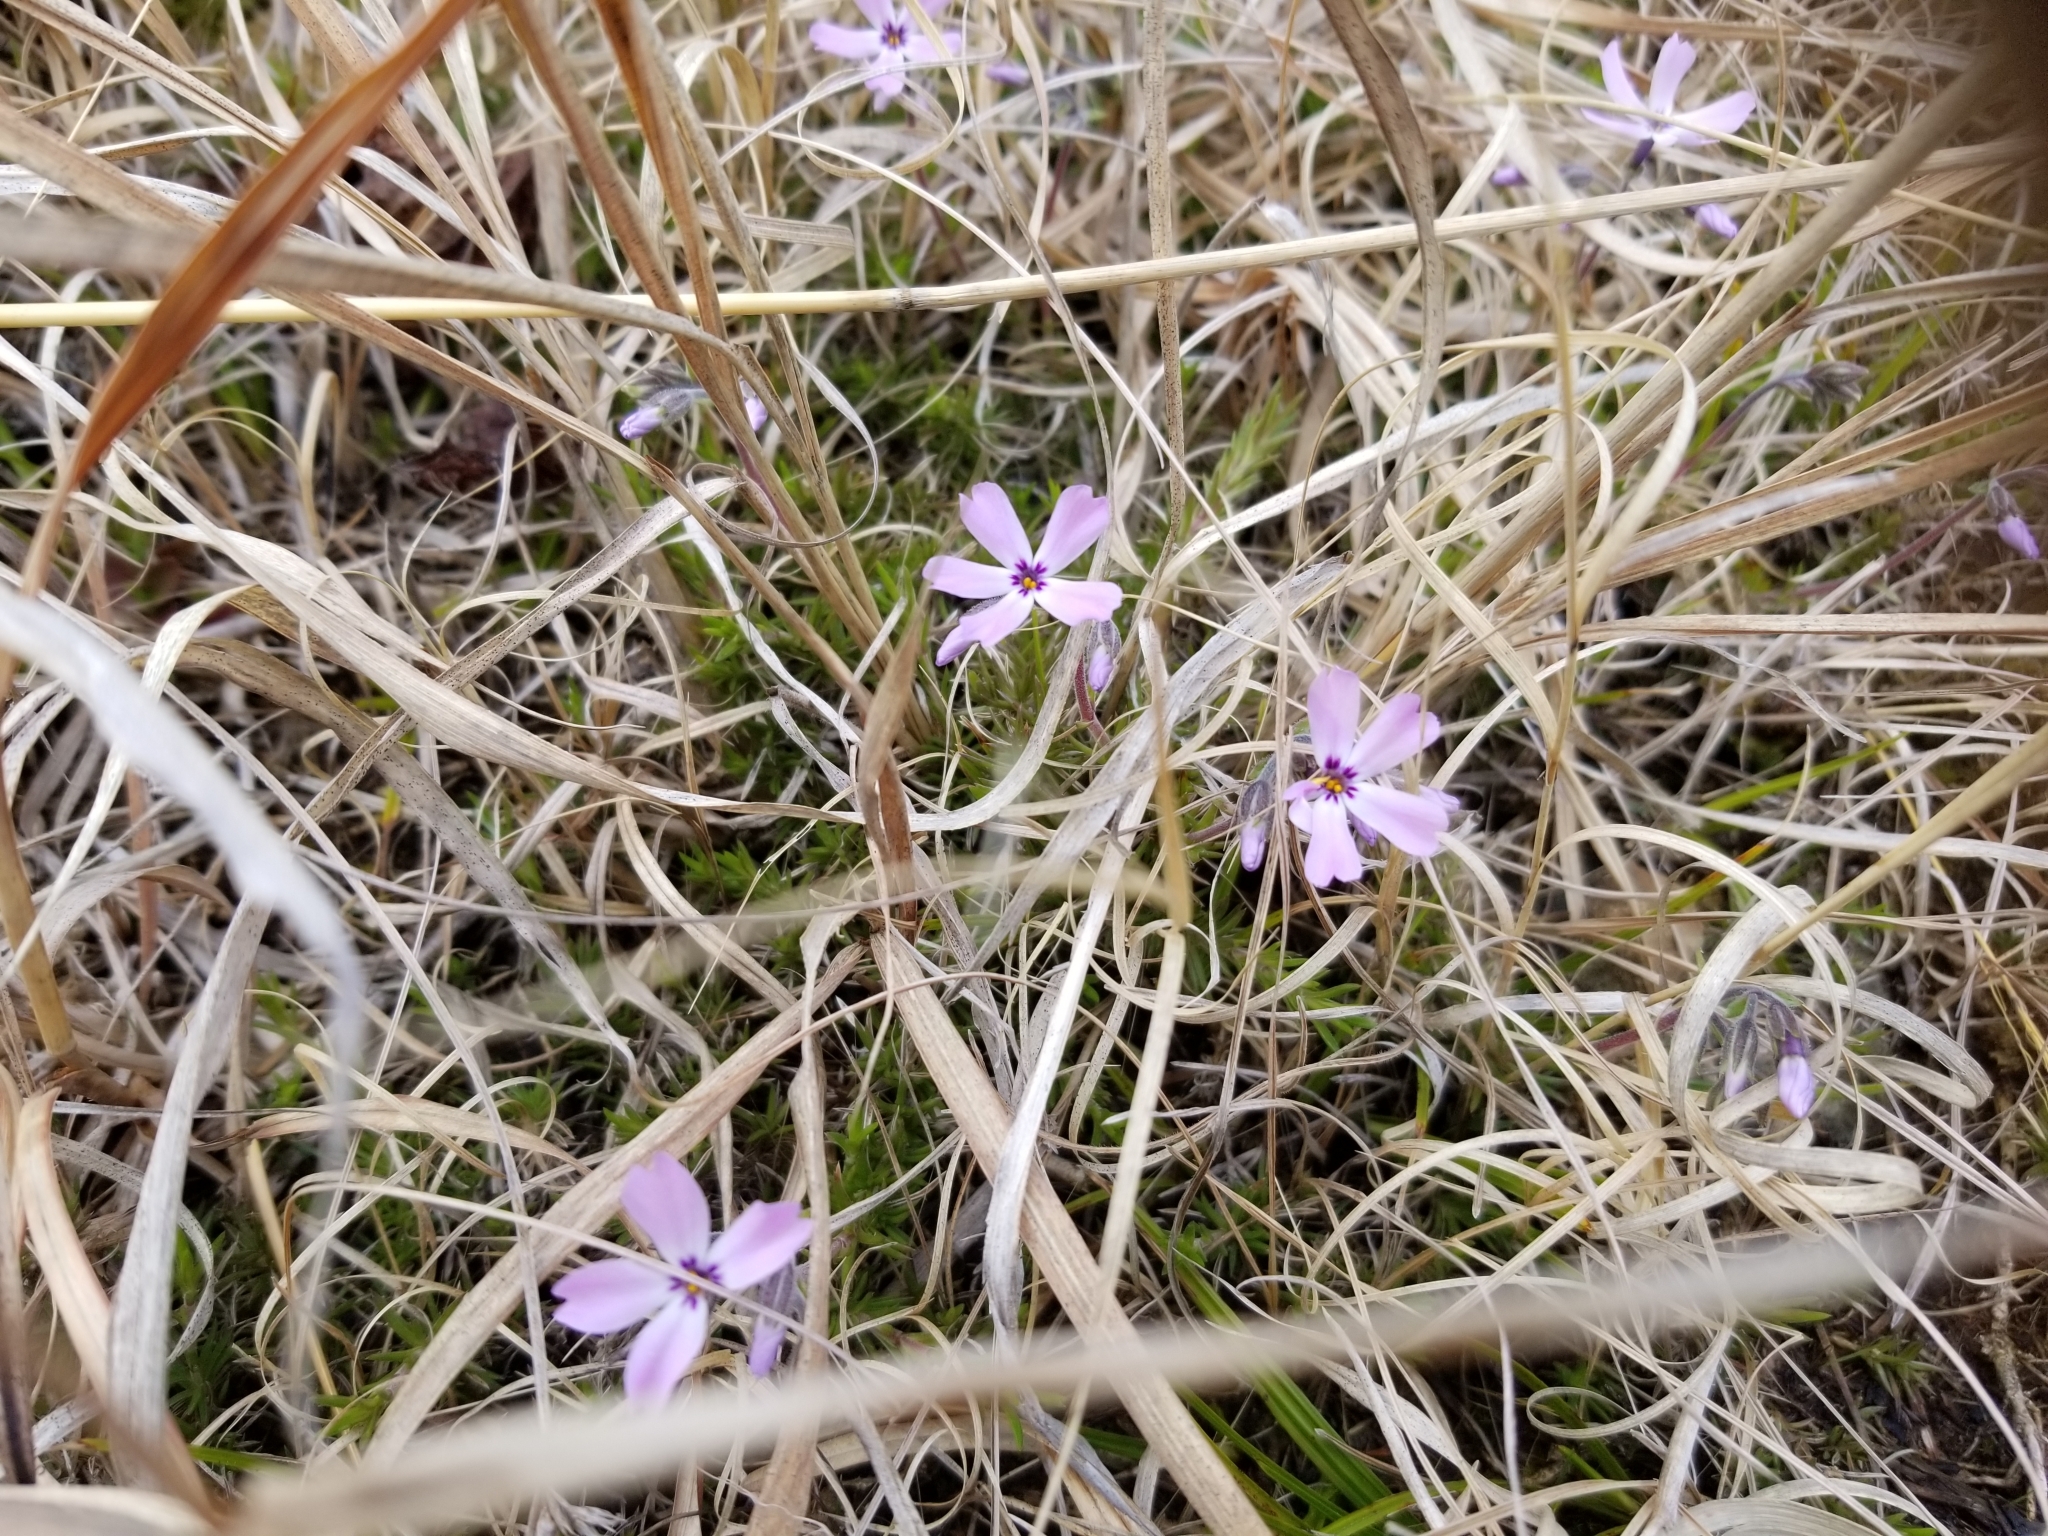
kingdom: Plantae
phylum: Tracheophyta
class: Magnoliopsida
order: Ericales
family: Polemoniaceae
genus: Phlox
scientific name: Phlox subulata
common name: Moss phlox
